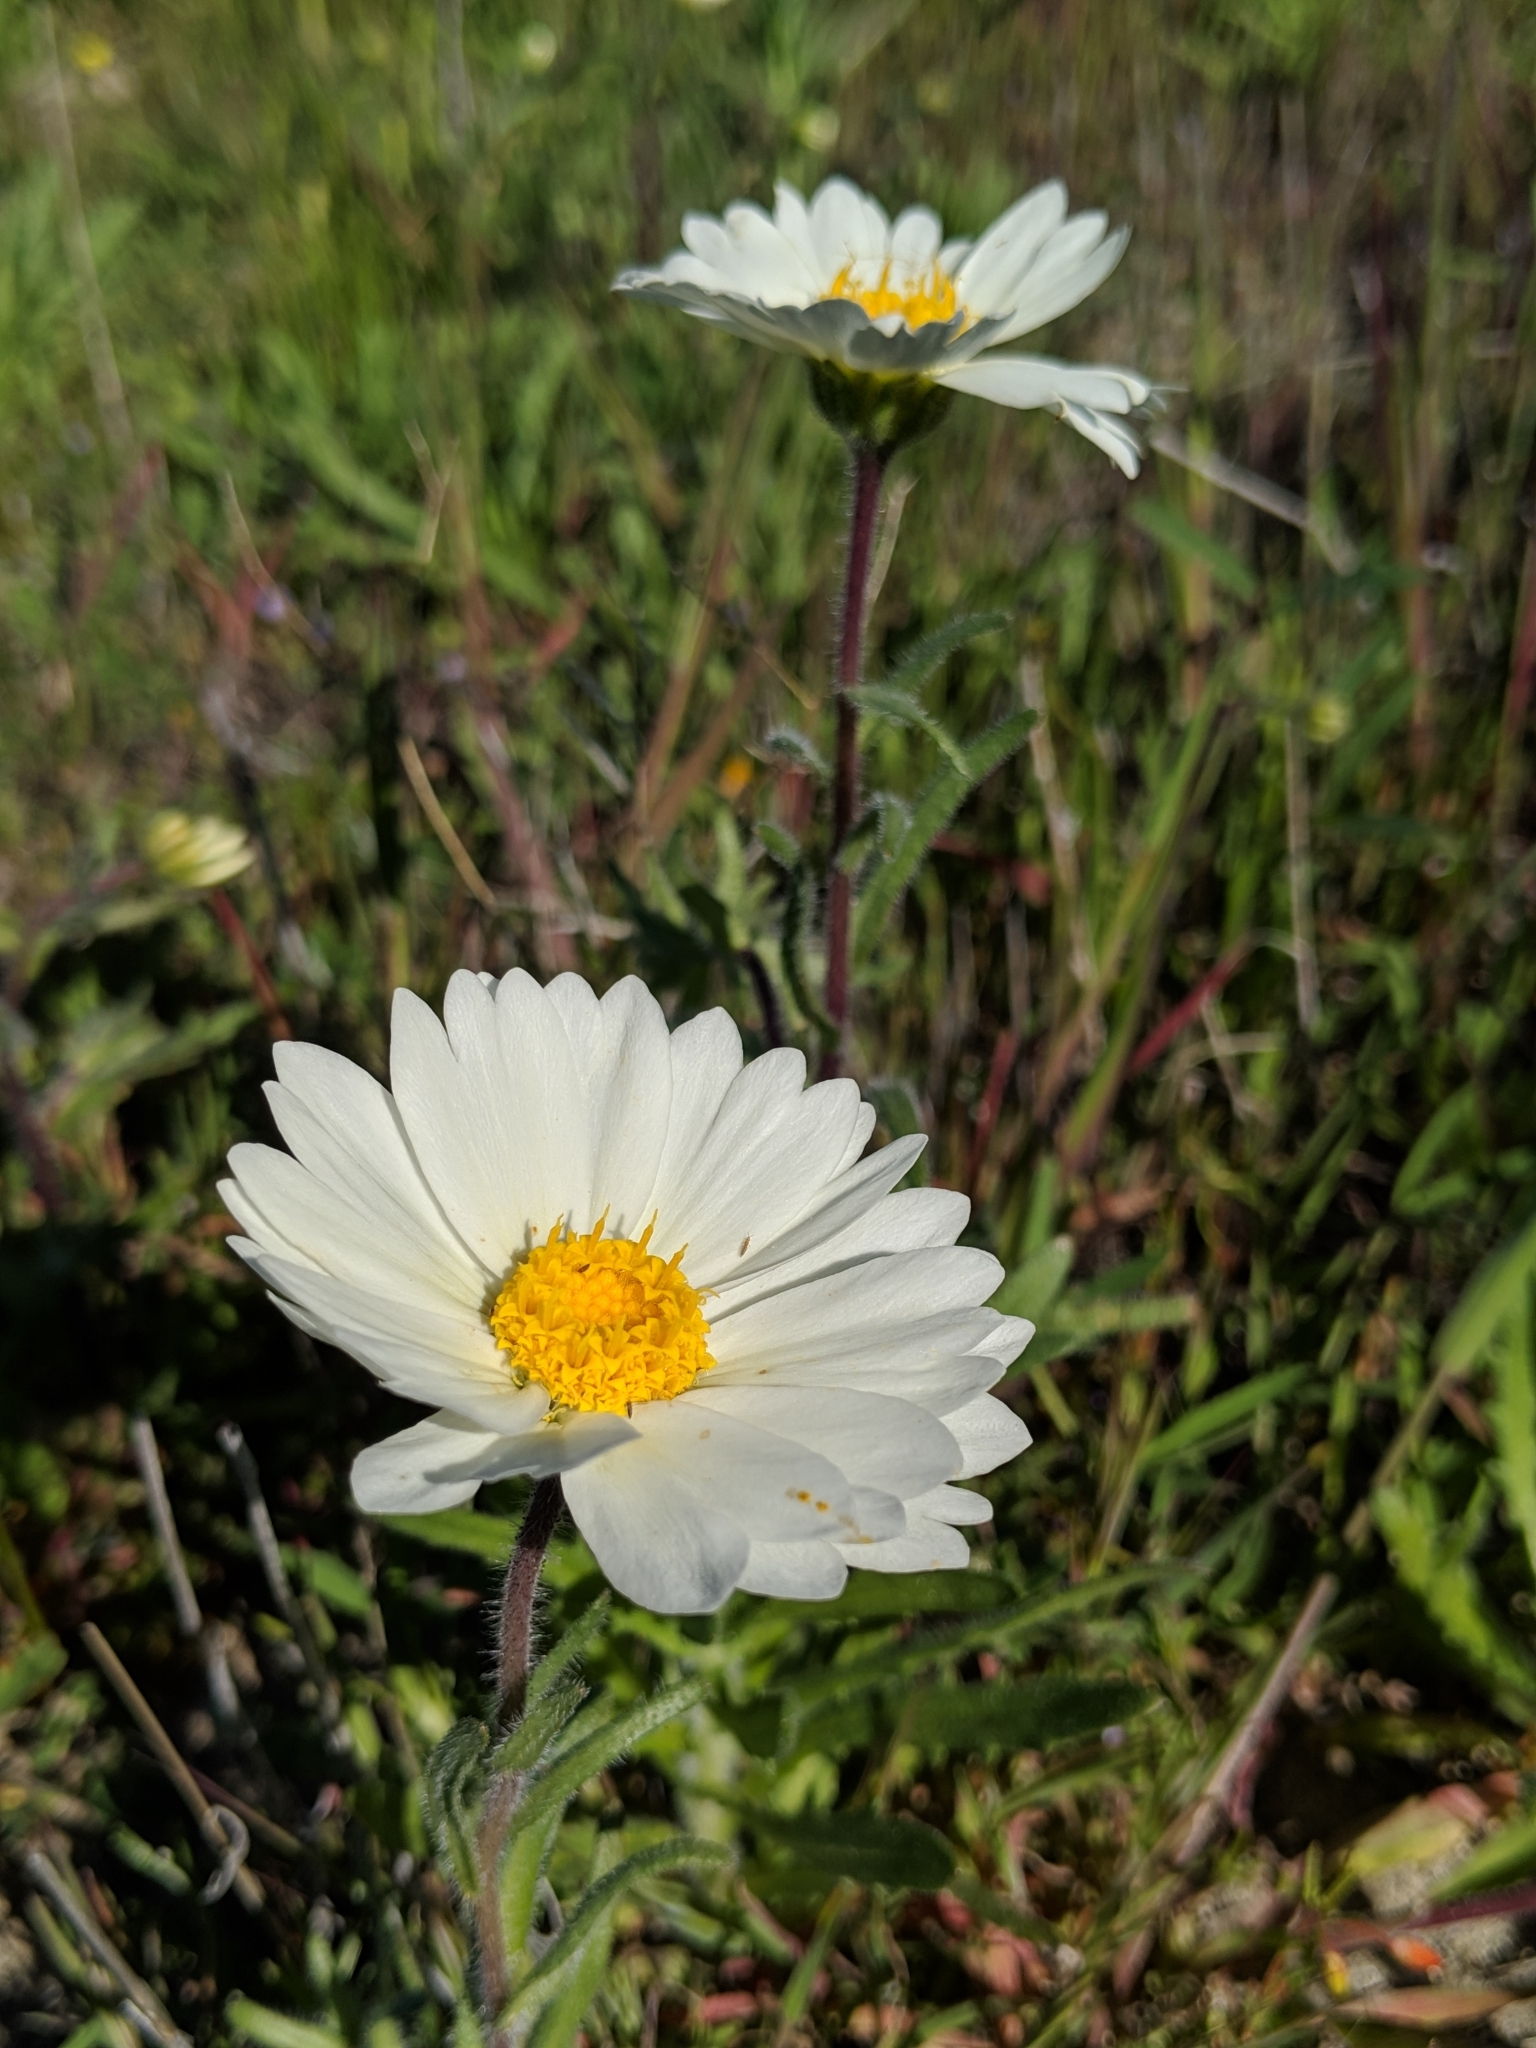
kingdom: Plantae
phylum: Tracheophyta
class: Magnoliopsida
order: Asterales
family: Asteraceae
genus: Layia
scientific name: Layia glandulosa
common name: White layia
